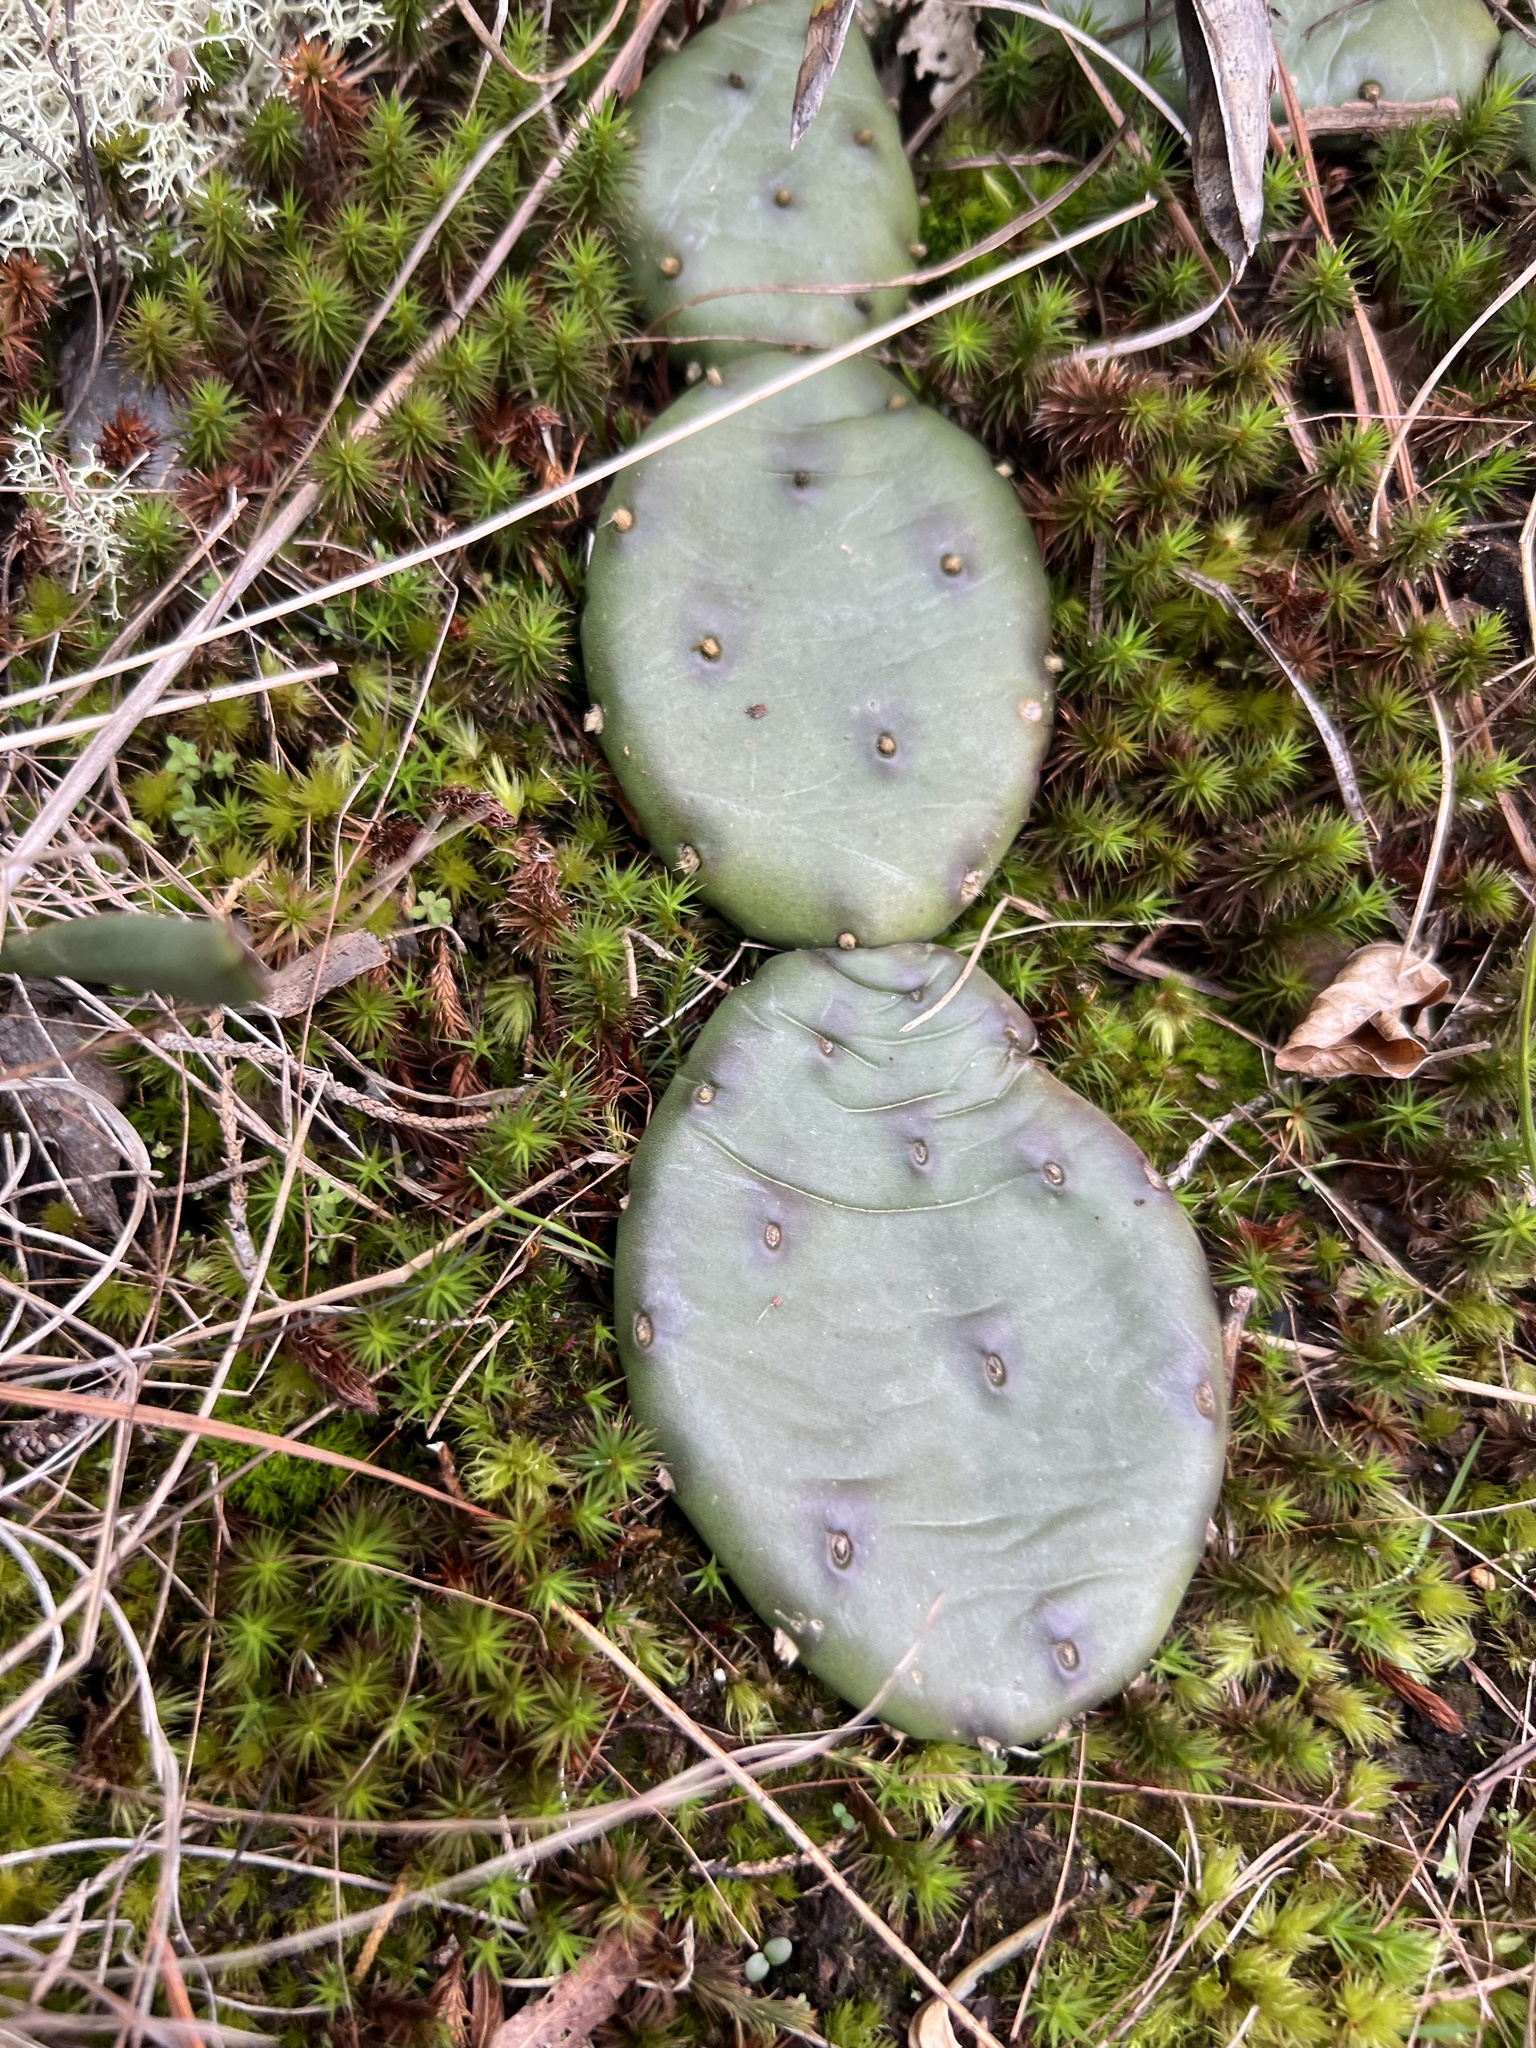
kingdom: Plantae
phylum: Tracheophyta
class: Magnoliopsida
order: Caryophyllales
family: Cactaceae
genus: Opuntia
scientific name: Opuntia mesacantha
